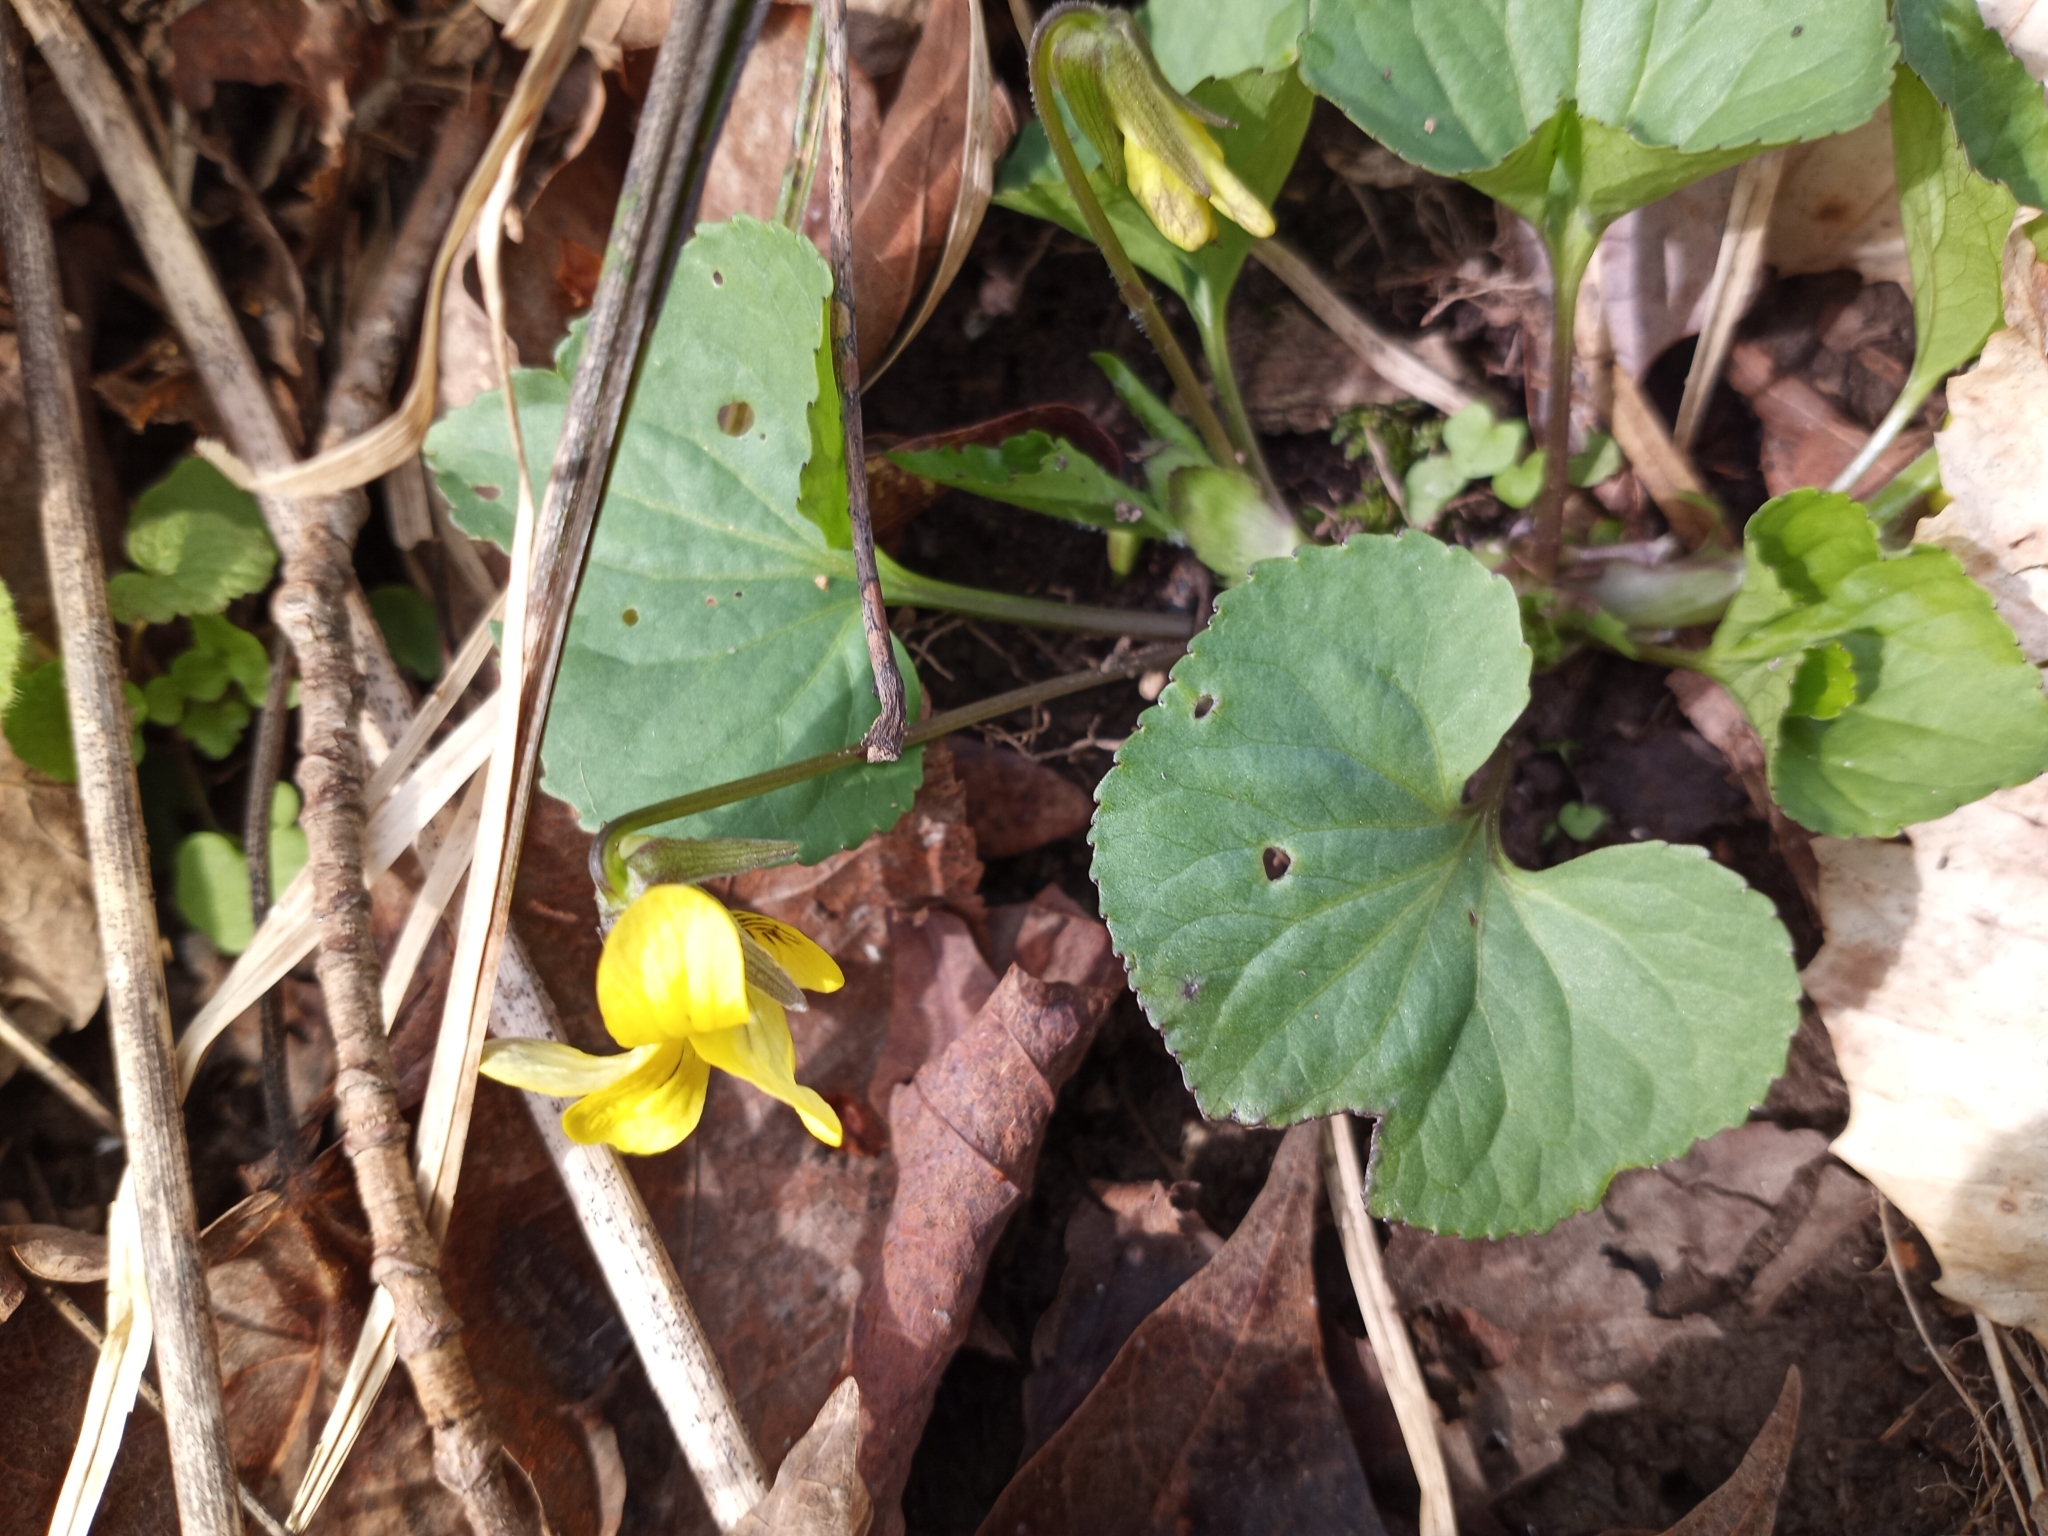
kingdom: Plantae
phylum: Tracheophyta
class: Magnoliopsida
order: Malpighiales
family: Violaceae
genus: Viola
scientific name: Viola eriocarpa
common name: Smooth yellow violet
